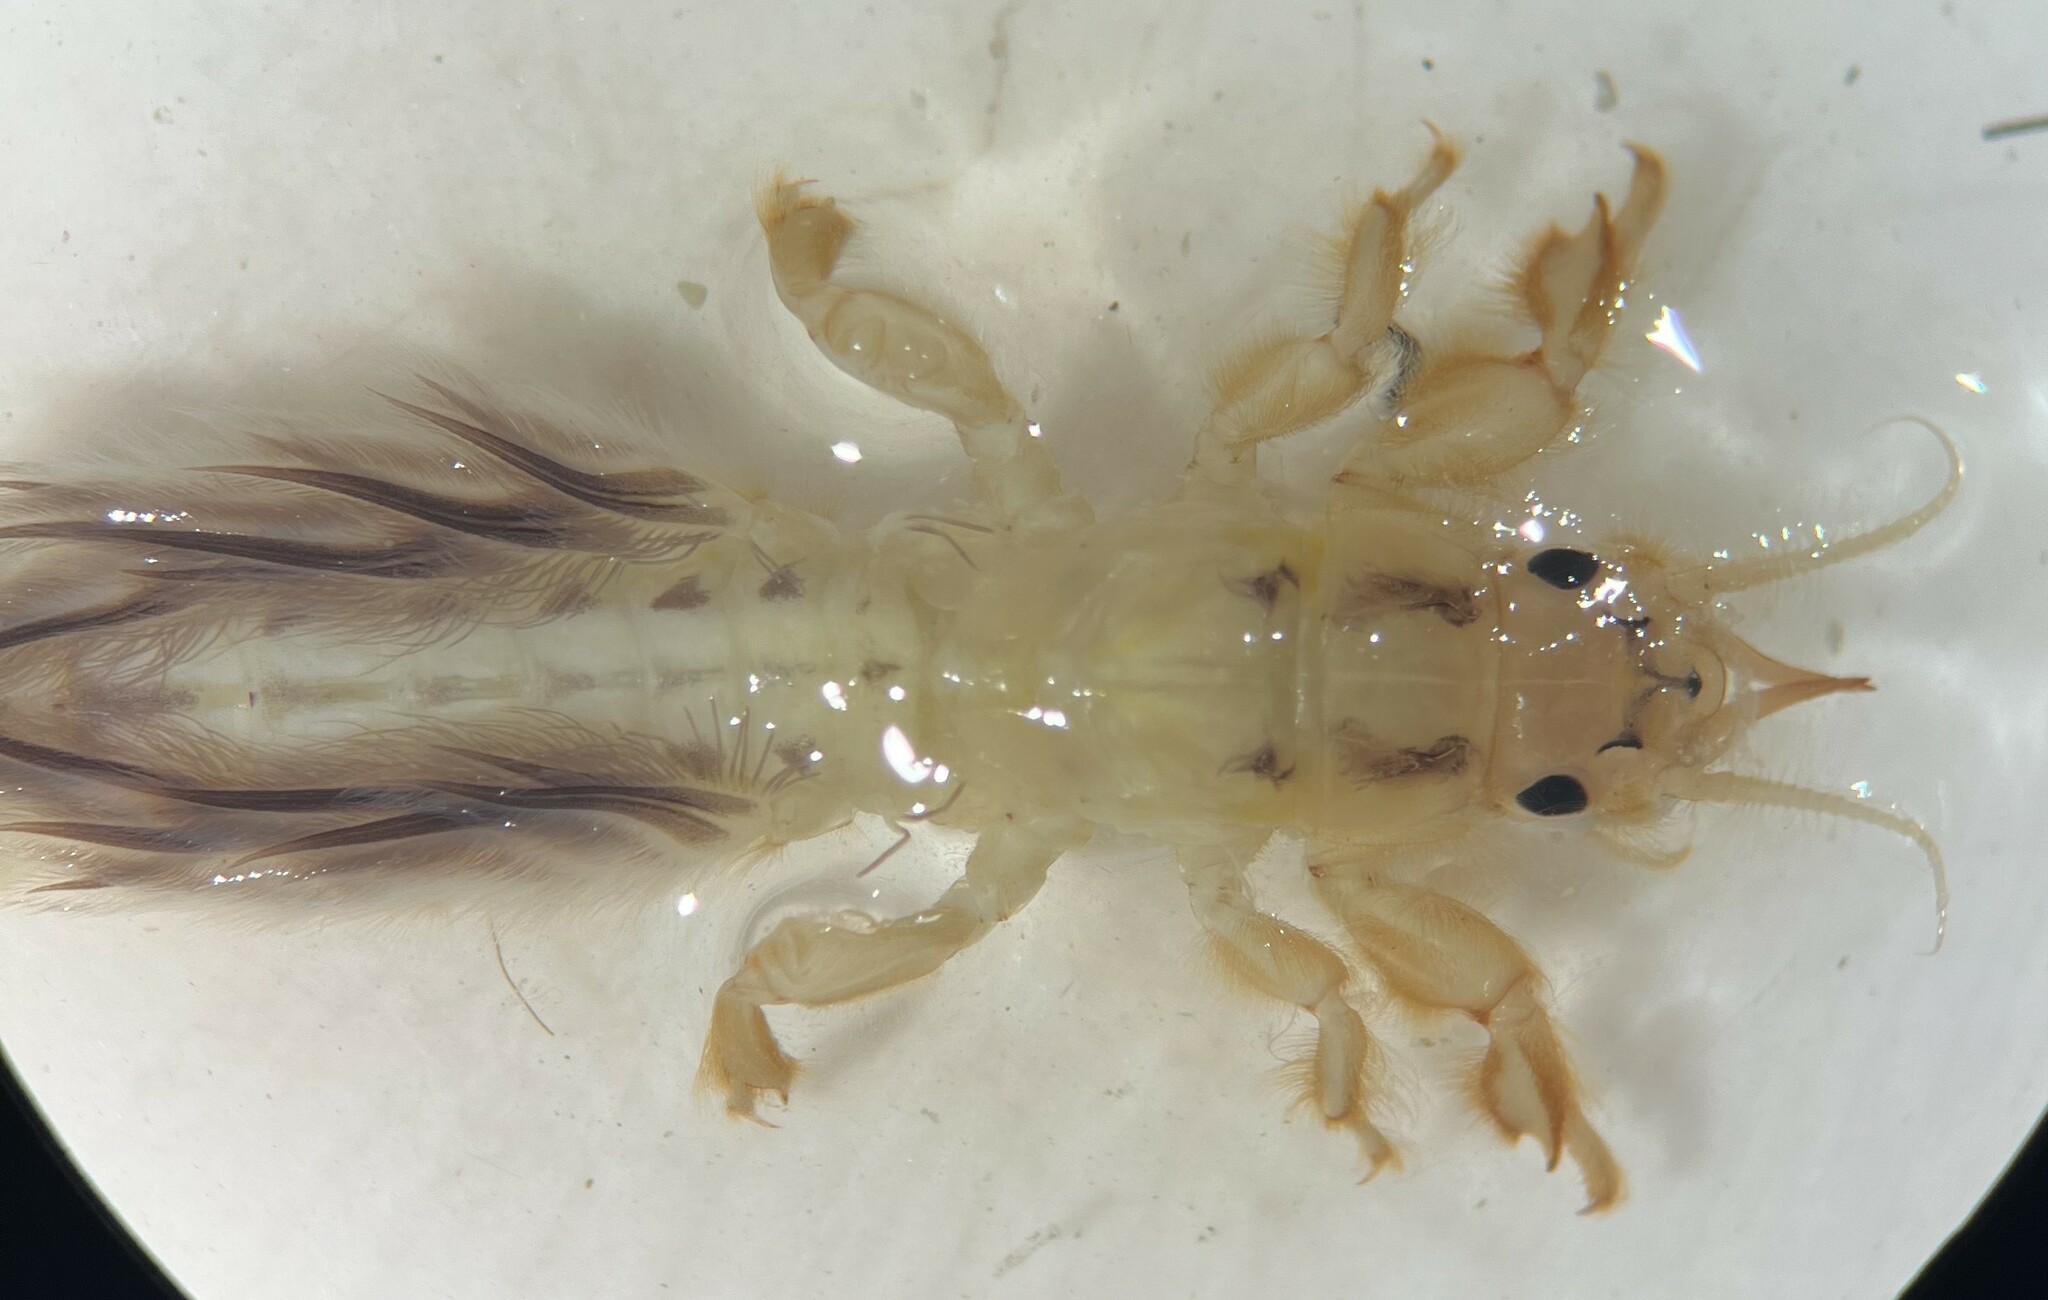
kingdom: Animalia
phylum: Arthropoda
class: Insecta
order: Ephemeroptera
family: Ephemeridae
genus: Hexagenia
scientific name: Hexagenia
